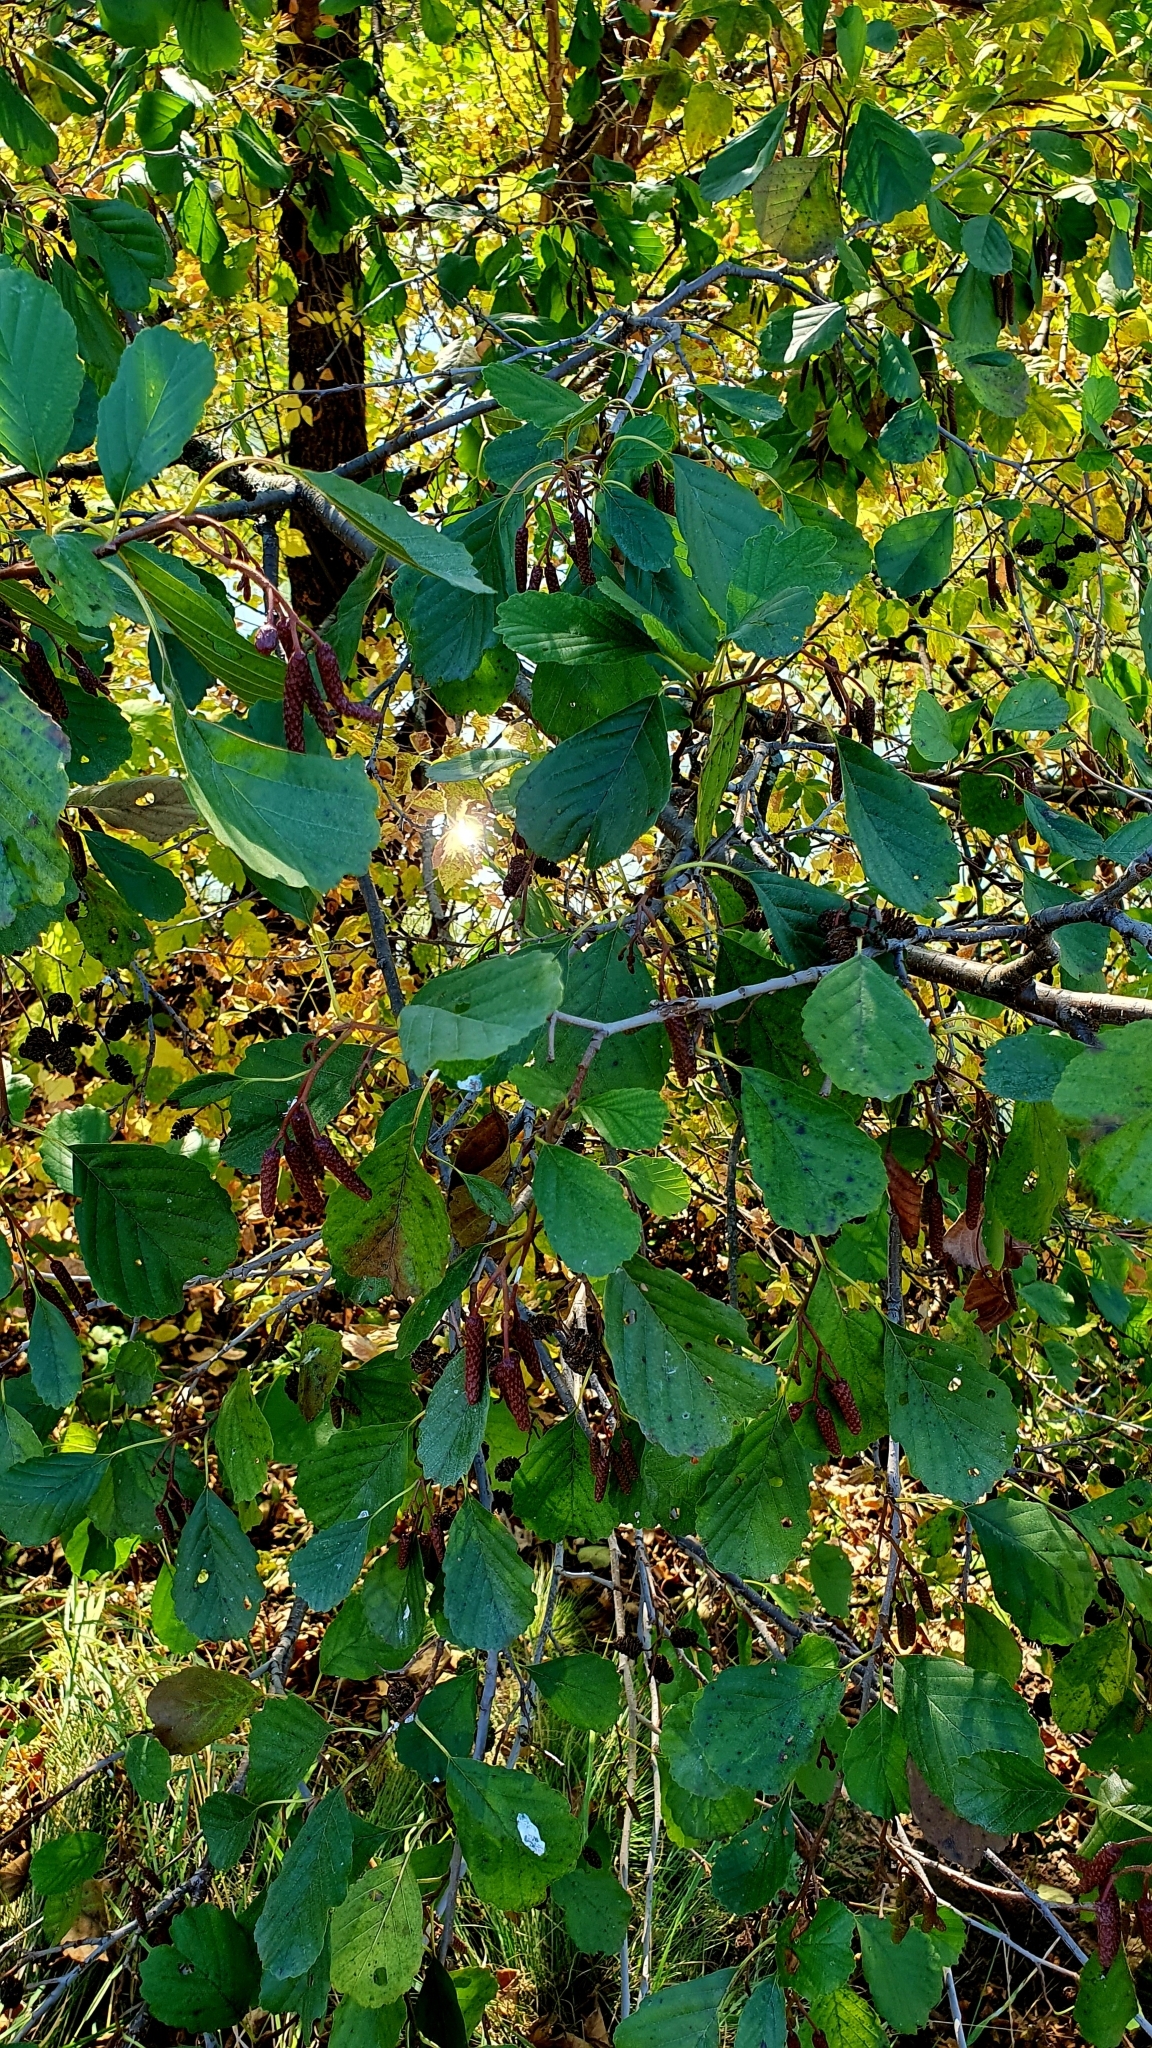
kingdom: Plantae
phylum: Tracheophyta
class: Magnoliopsida
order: Fagales
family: Betulaceae
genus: Alnus
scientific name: Alnus glutinosa
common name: Black alder
